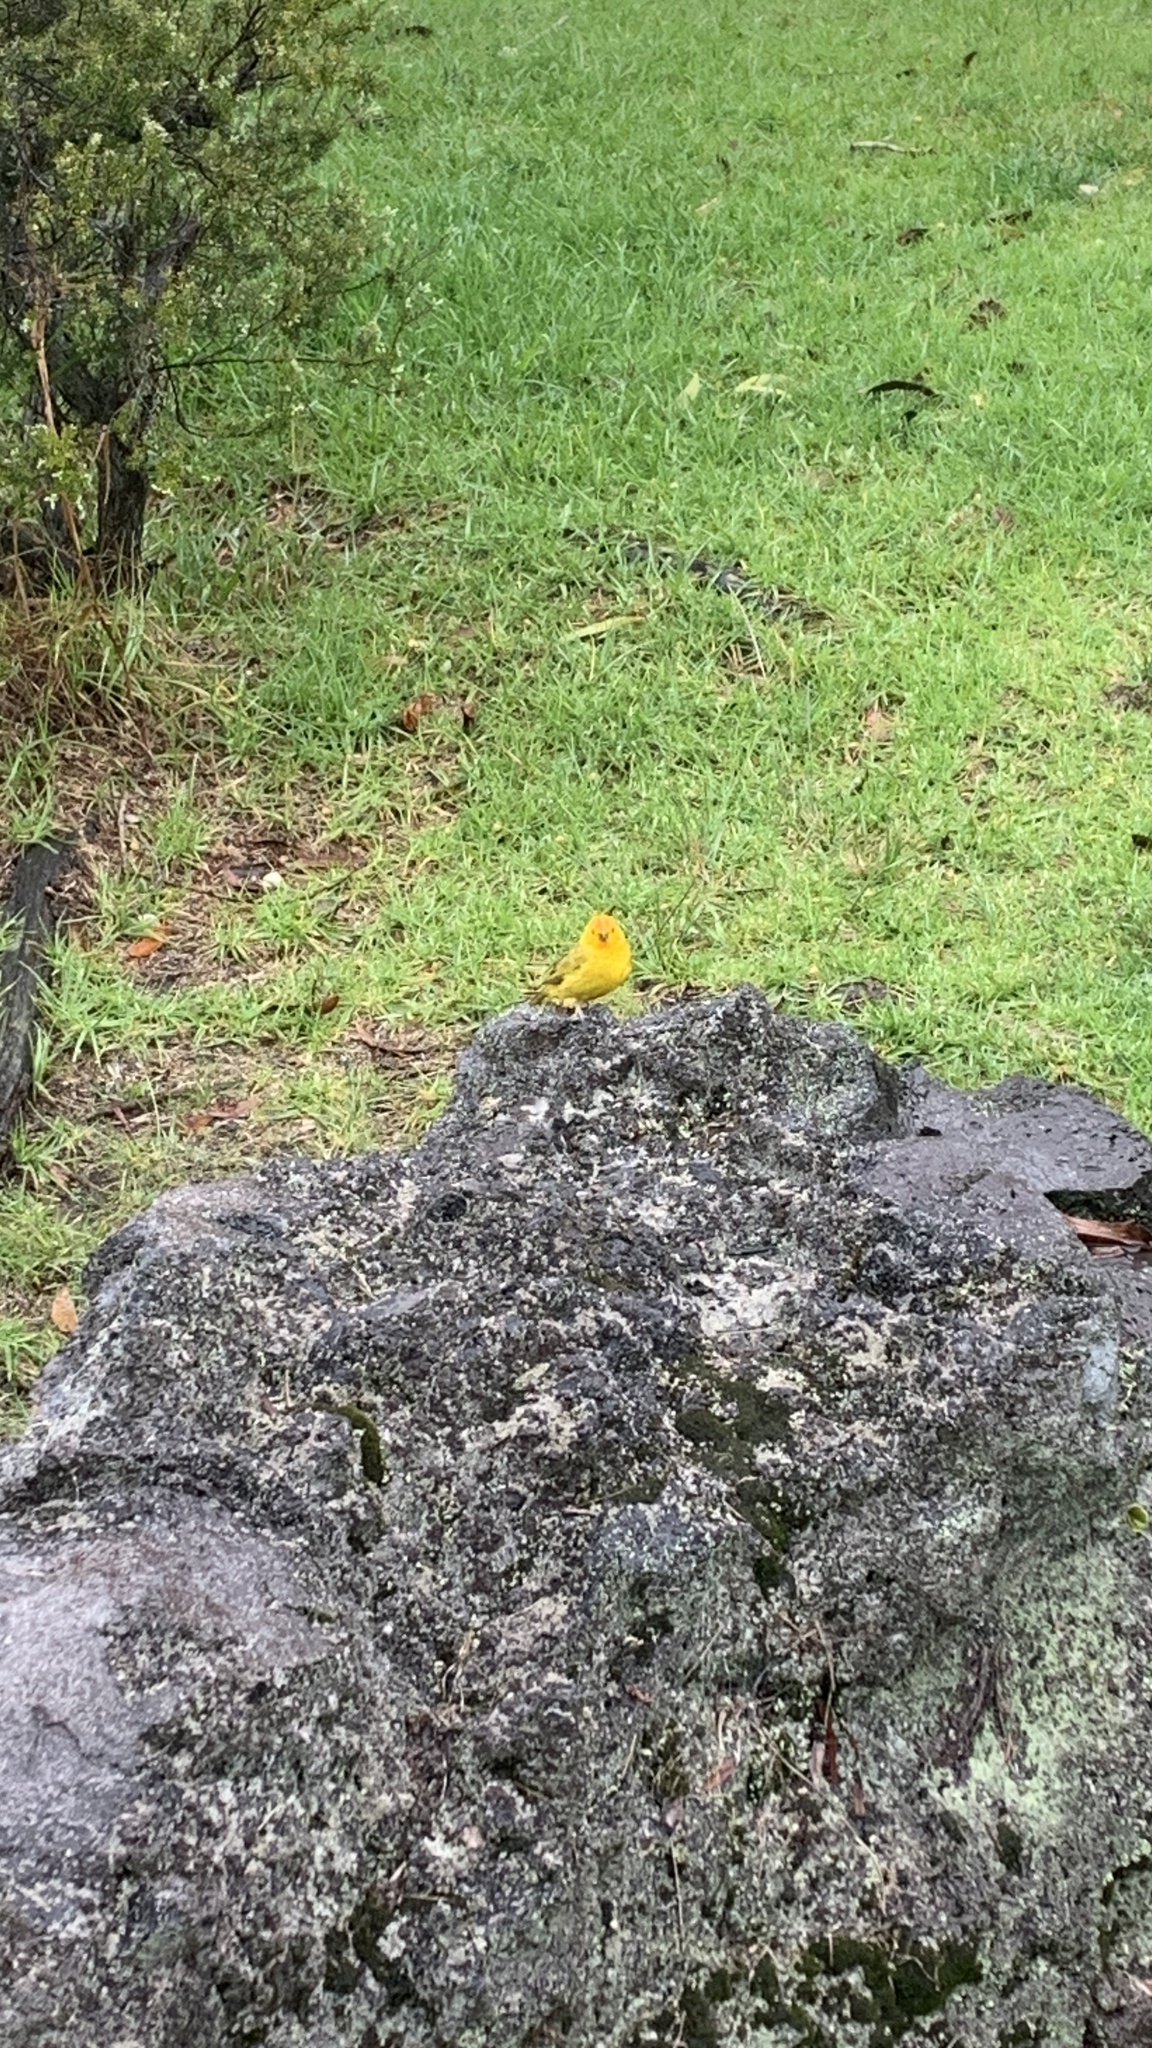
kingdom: Animalia
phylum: Chordata
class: Aves
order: Passeriformes
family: Thraupidae
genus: Sicalis
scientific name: Sicalis flaveola
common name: Saffron finch
